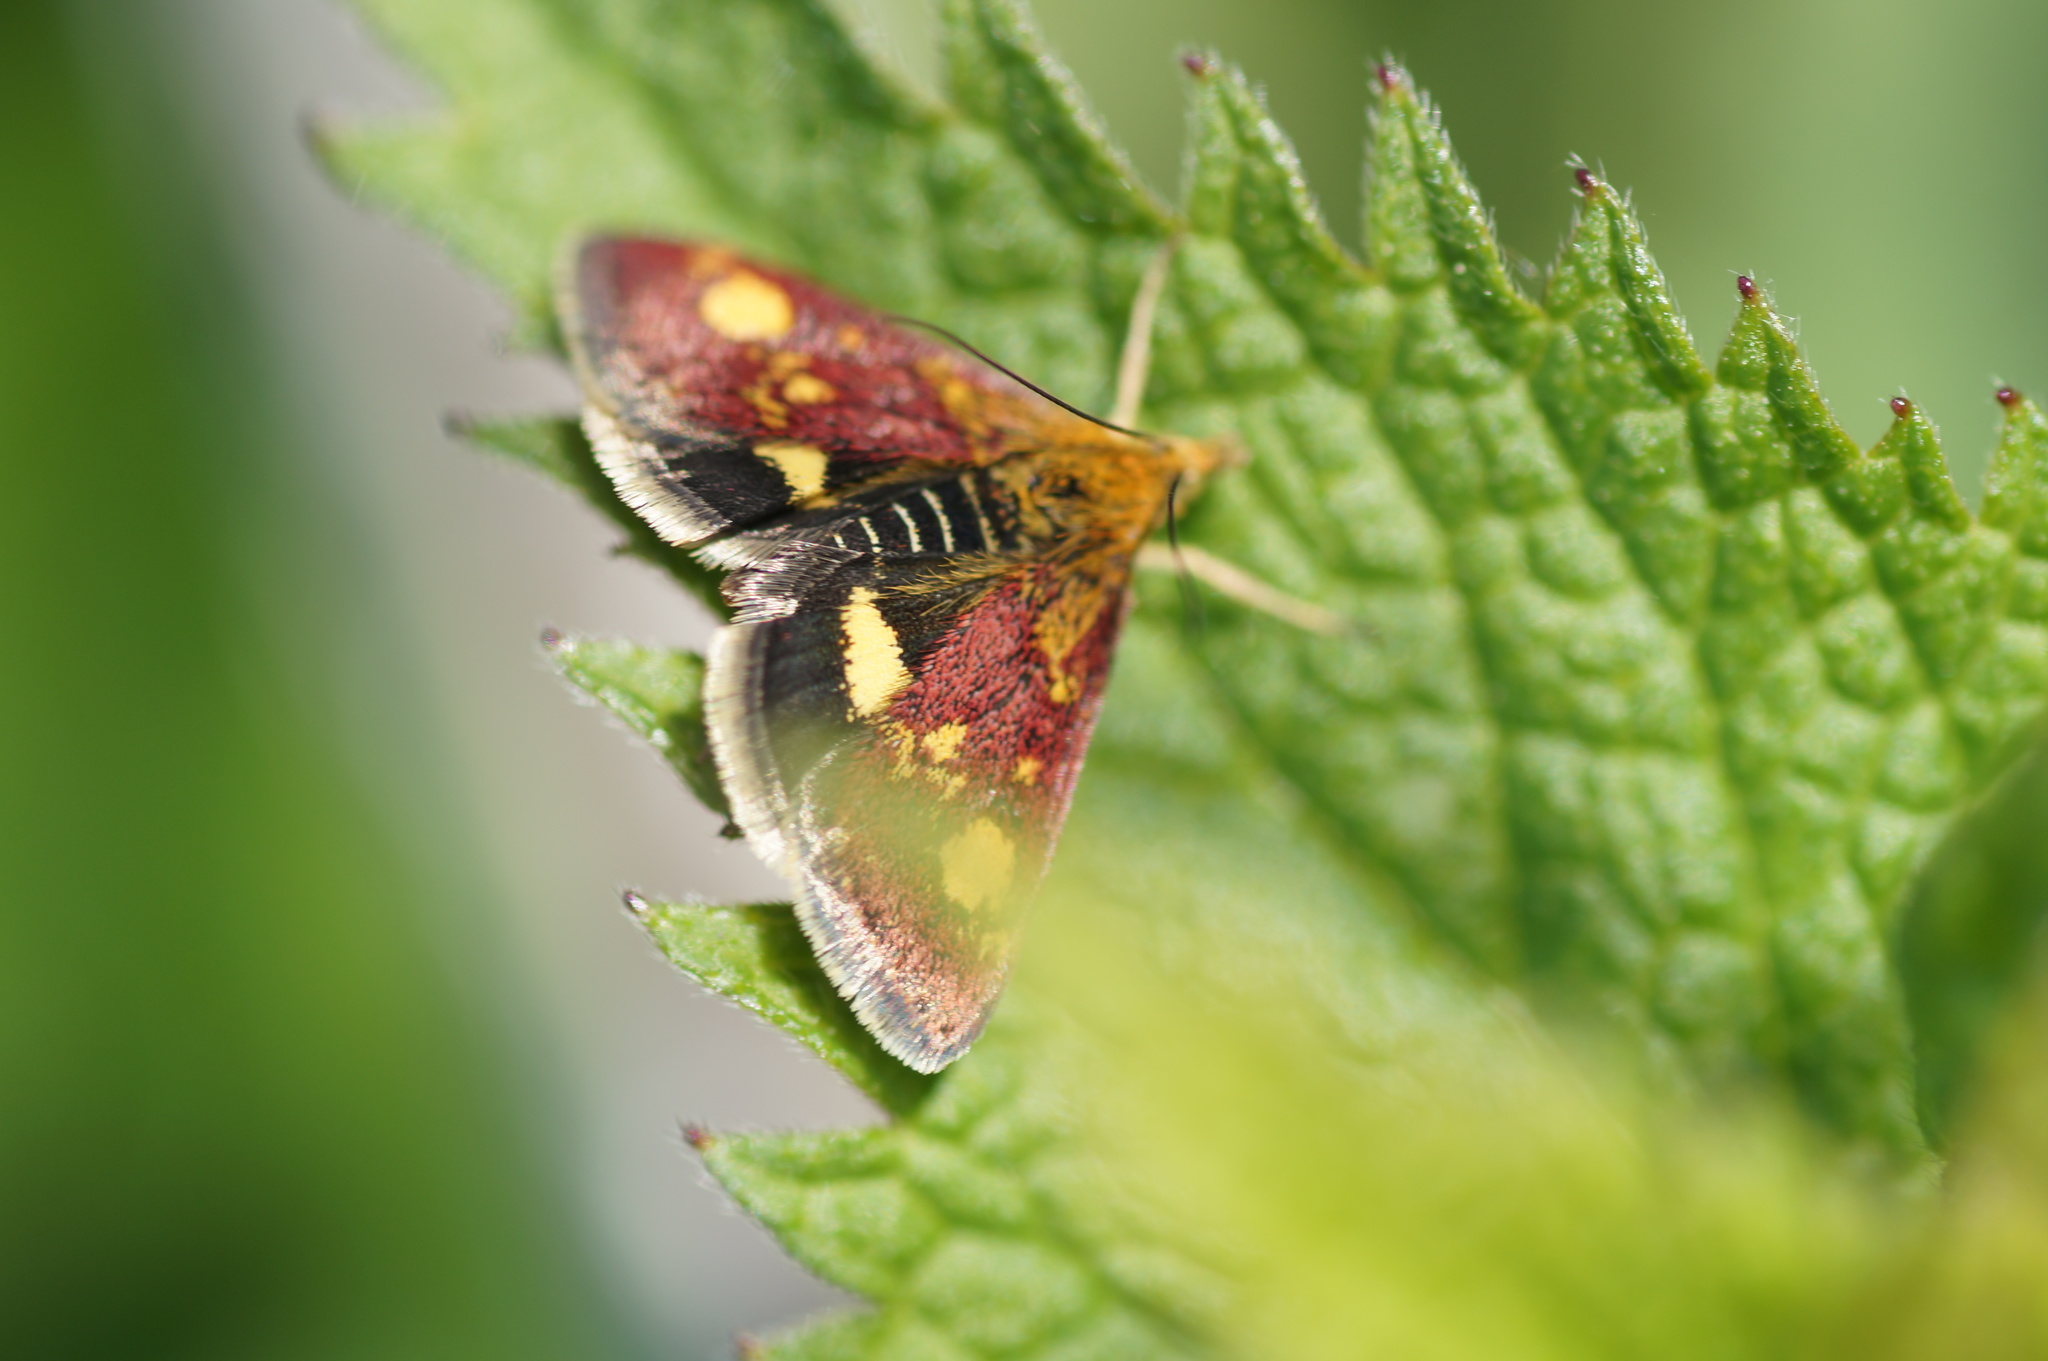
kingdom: Animalia
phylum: Arthropoda
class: Insecta
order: Lepidoptera
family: Crambidae
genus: Pyrausta
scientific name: Pyrausta aurata
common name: Small purple & gold
